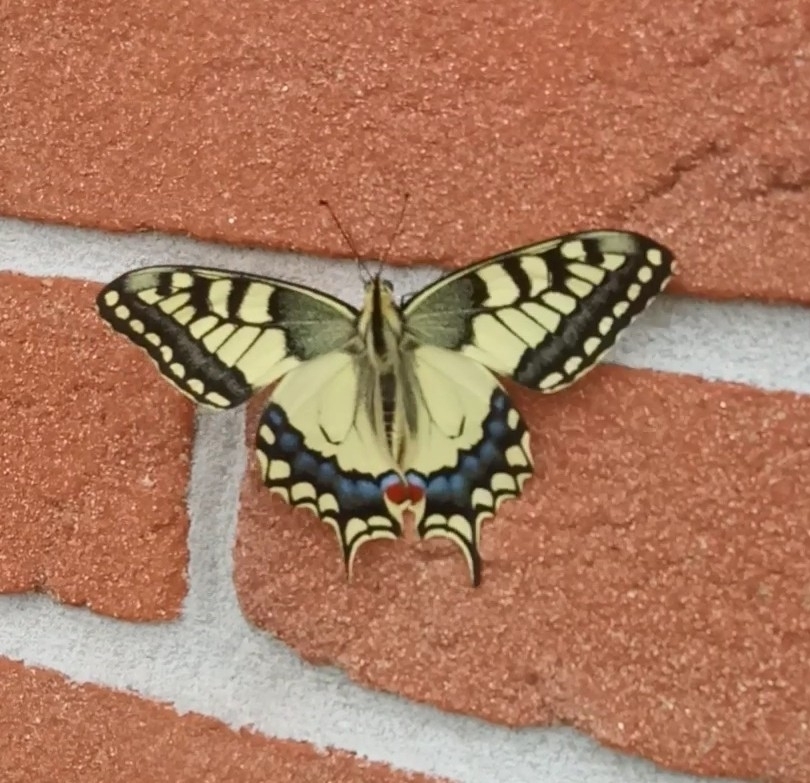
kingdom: Animalia
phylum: Arthropoda
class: Insecta
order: Lepidoptera
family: Papilionidae
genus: Papilio
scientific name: Papilio machaon
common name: Swallowtail
